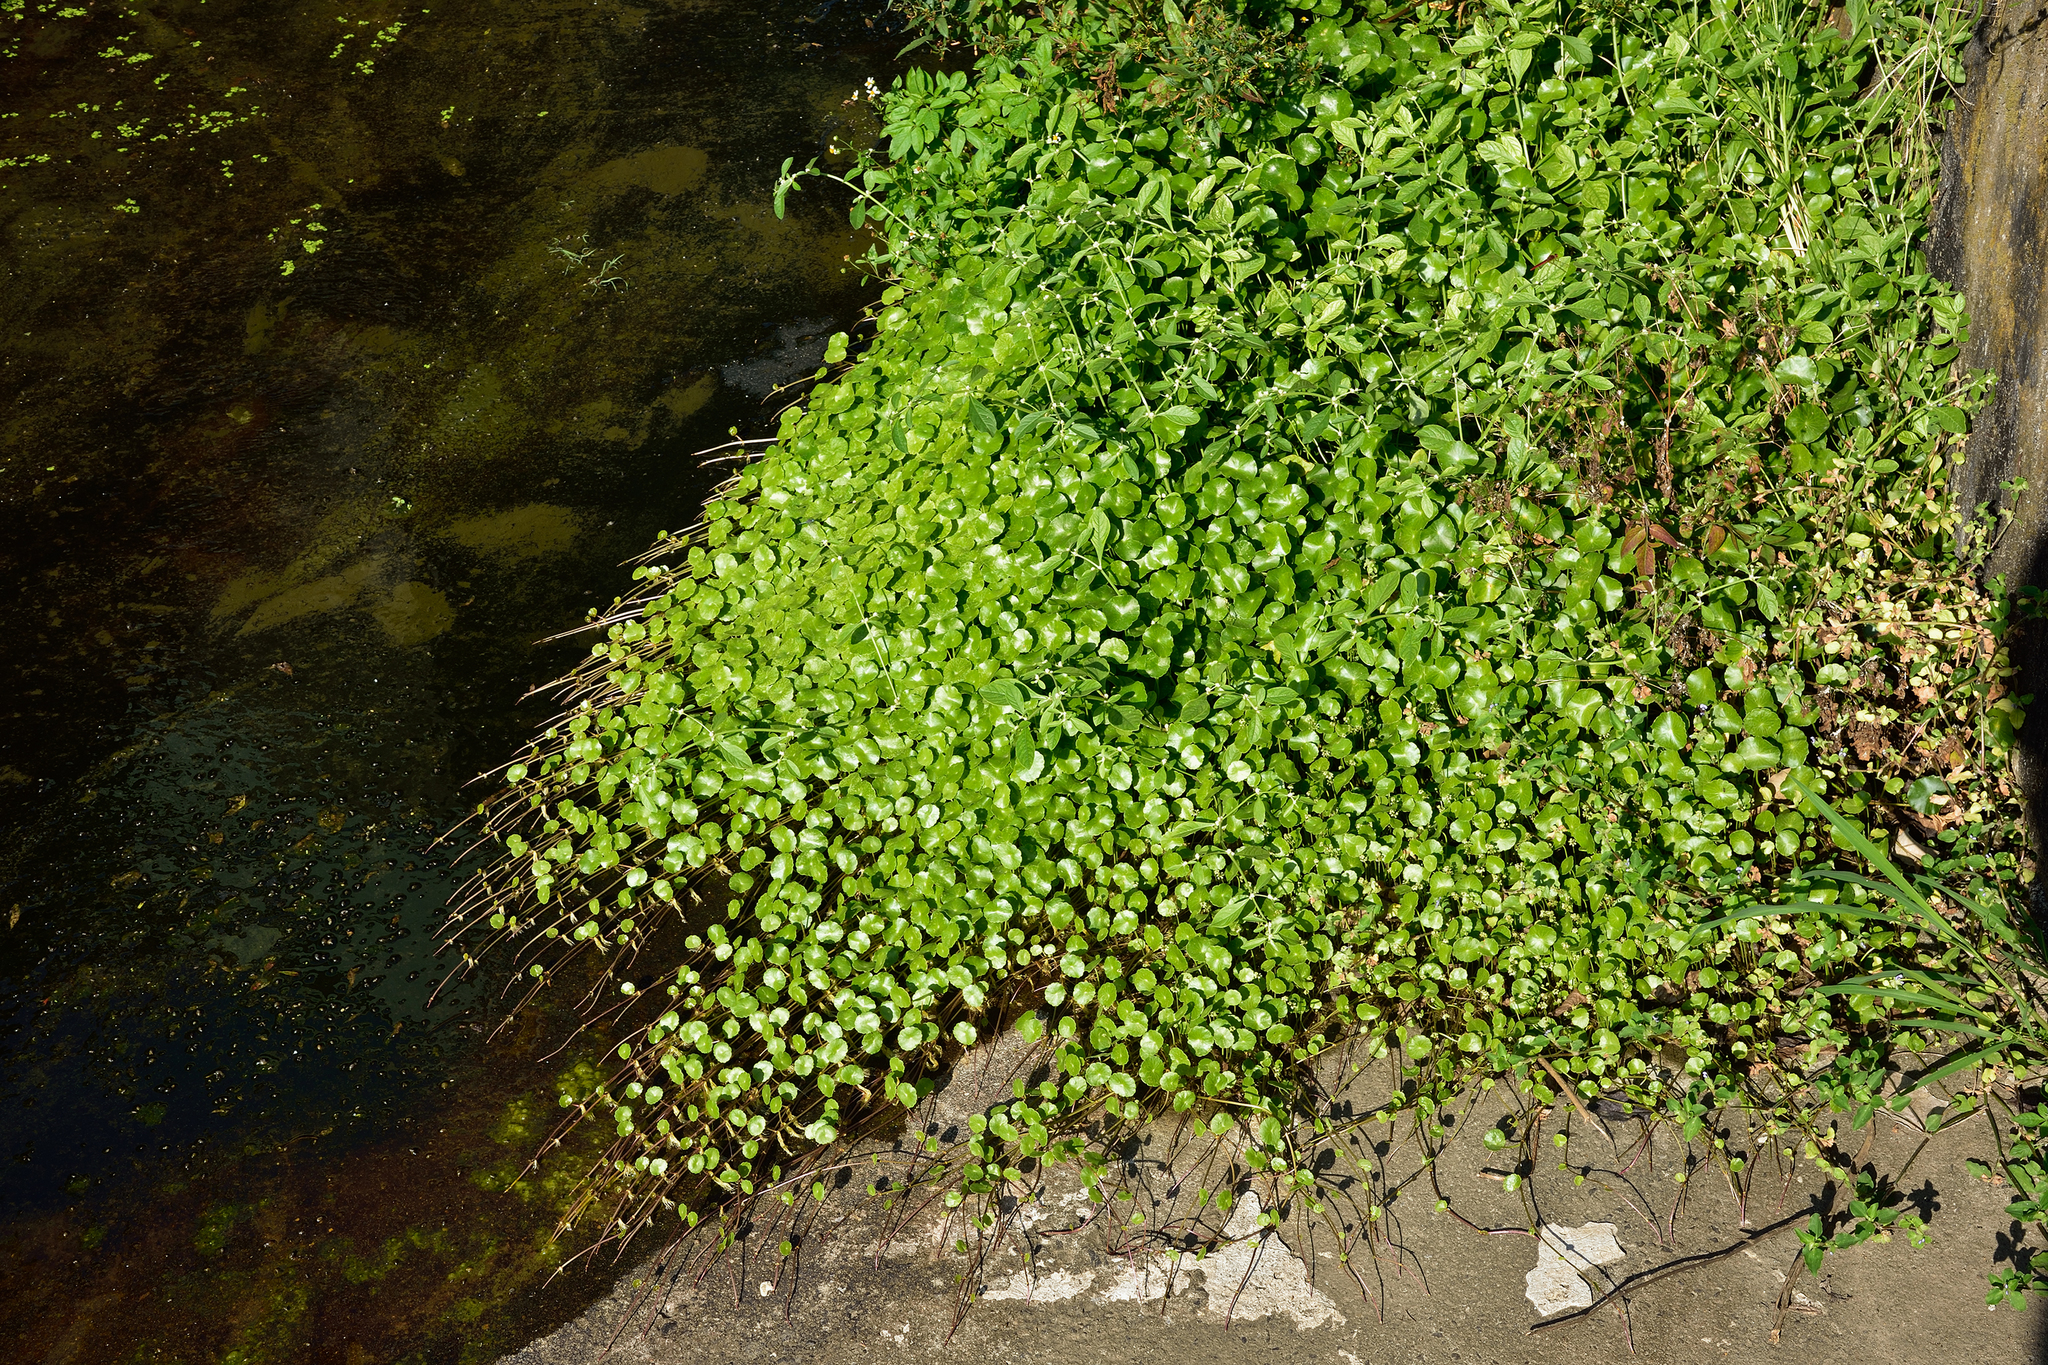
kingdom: Plantae
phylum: Tracheophyta
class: Magnoliopsida
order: Apiales
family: Araliaceae
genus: Hydrocotyle
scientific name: Hydrocotyle verticillata
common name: Whorled marshpennywort
